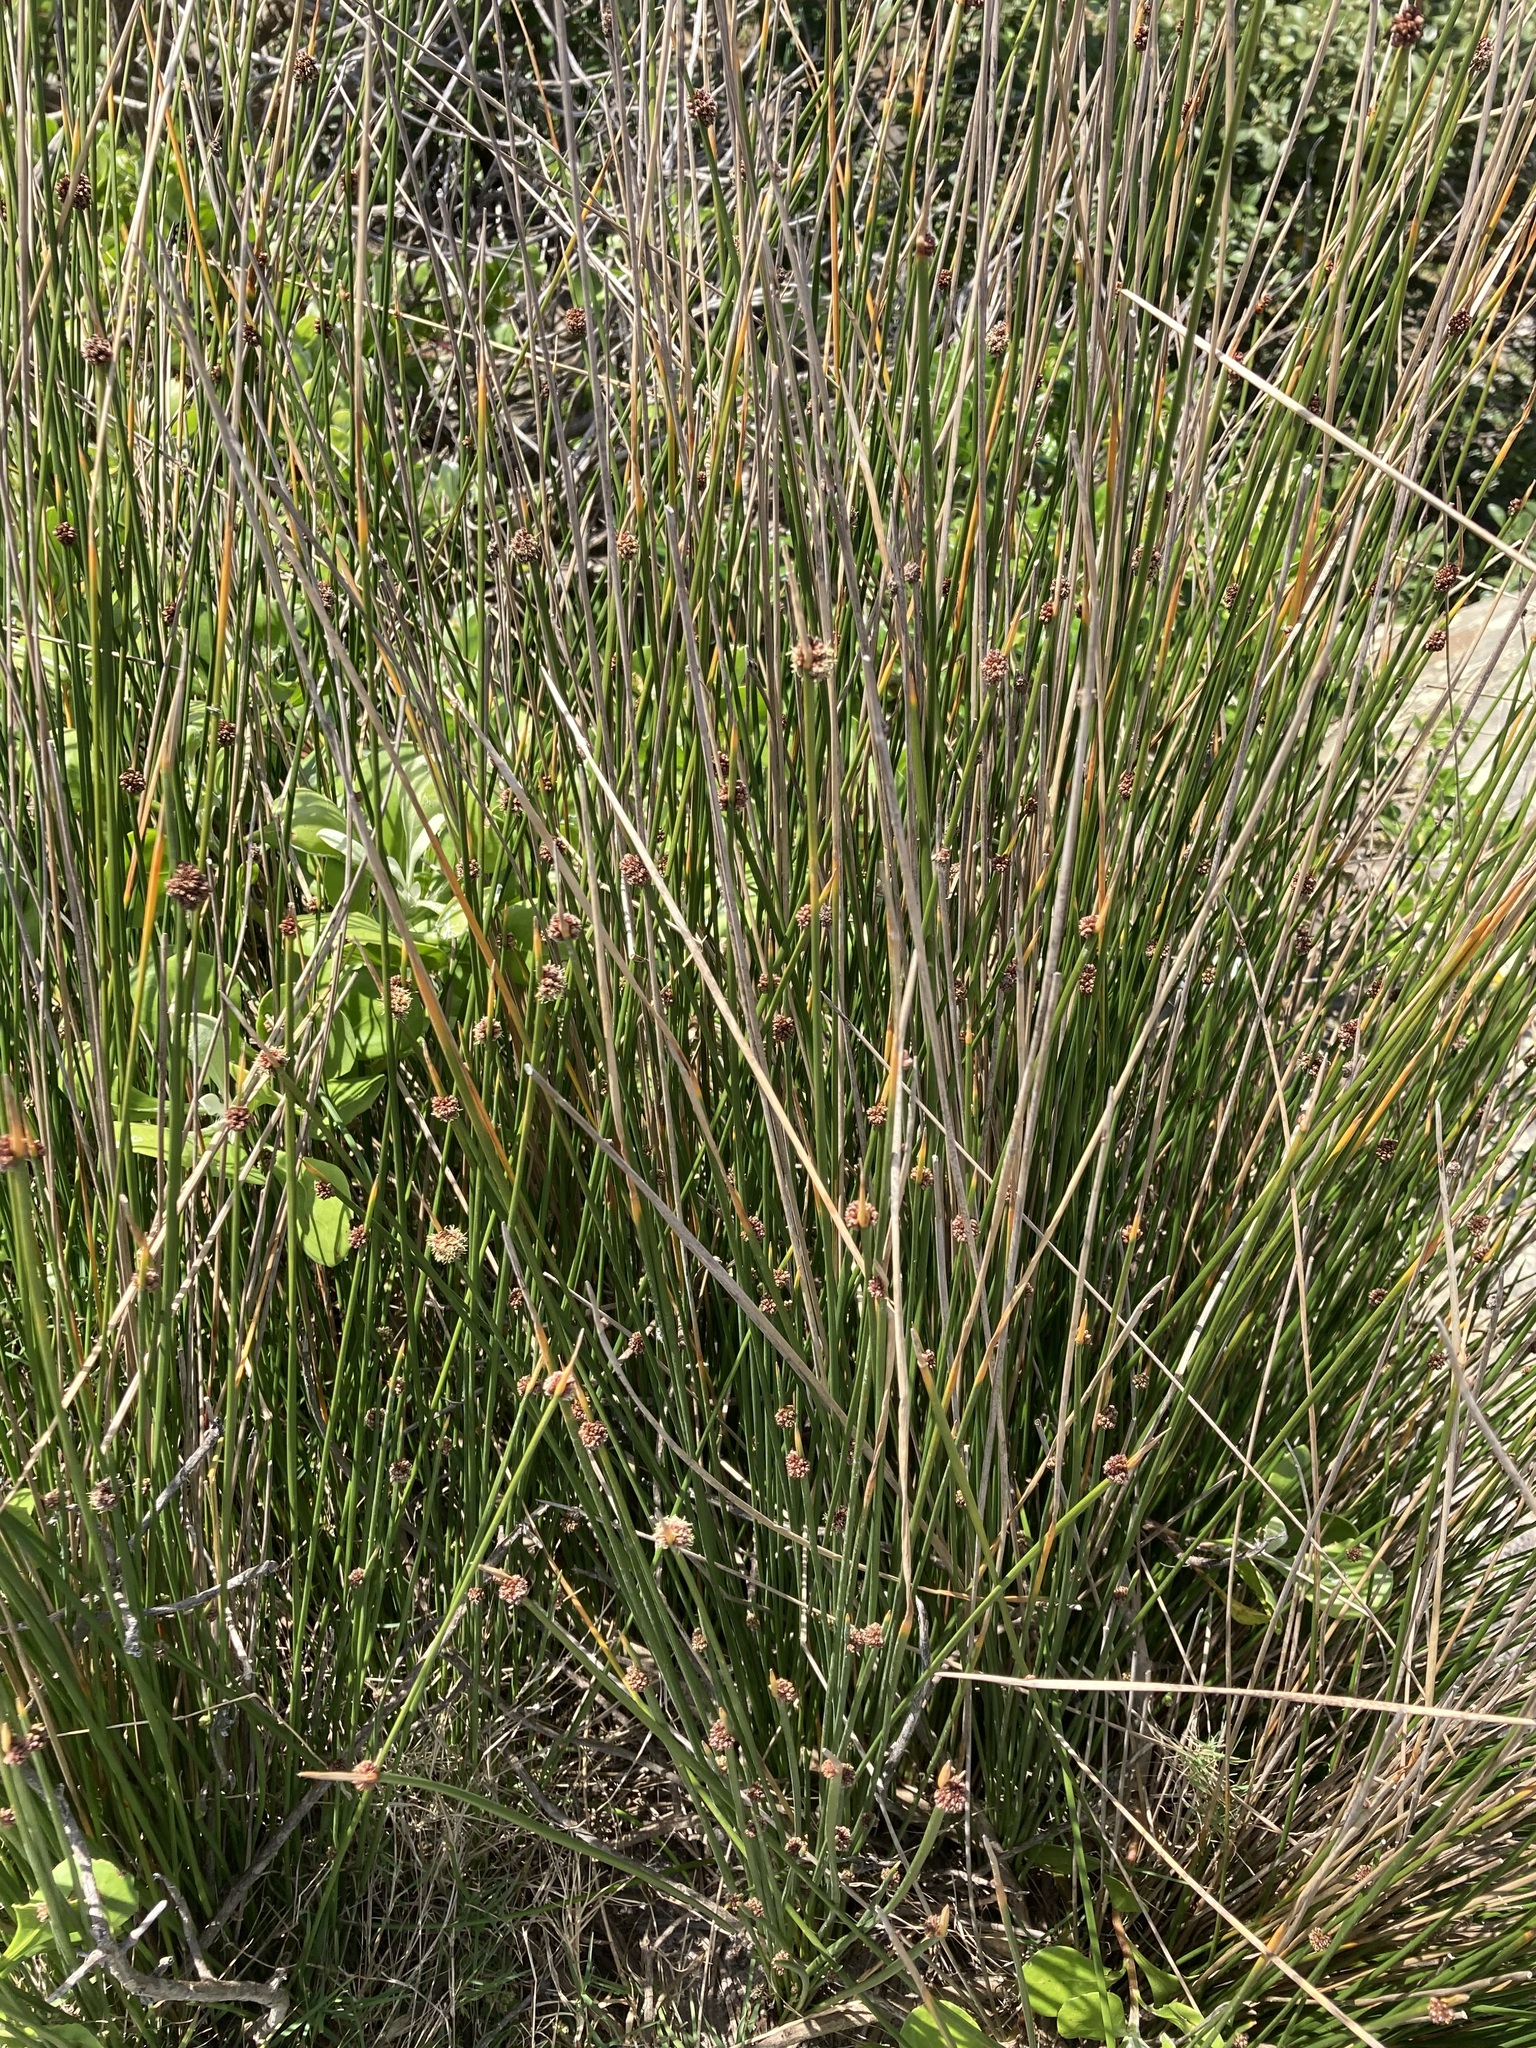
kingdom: Plantae
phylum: Tracheophyta
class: Liliopsida
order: Poales
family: Cyperaceae
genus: Ficinia
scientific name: Ficinia nodosa
